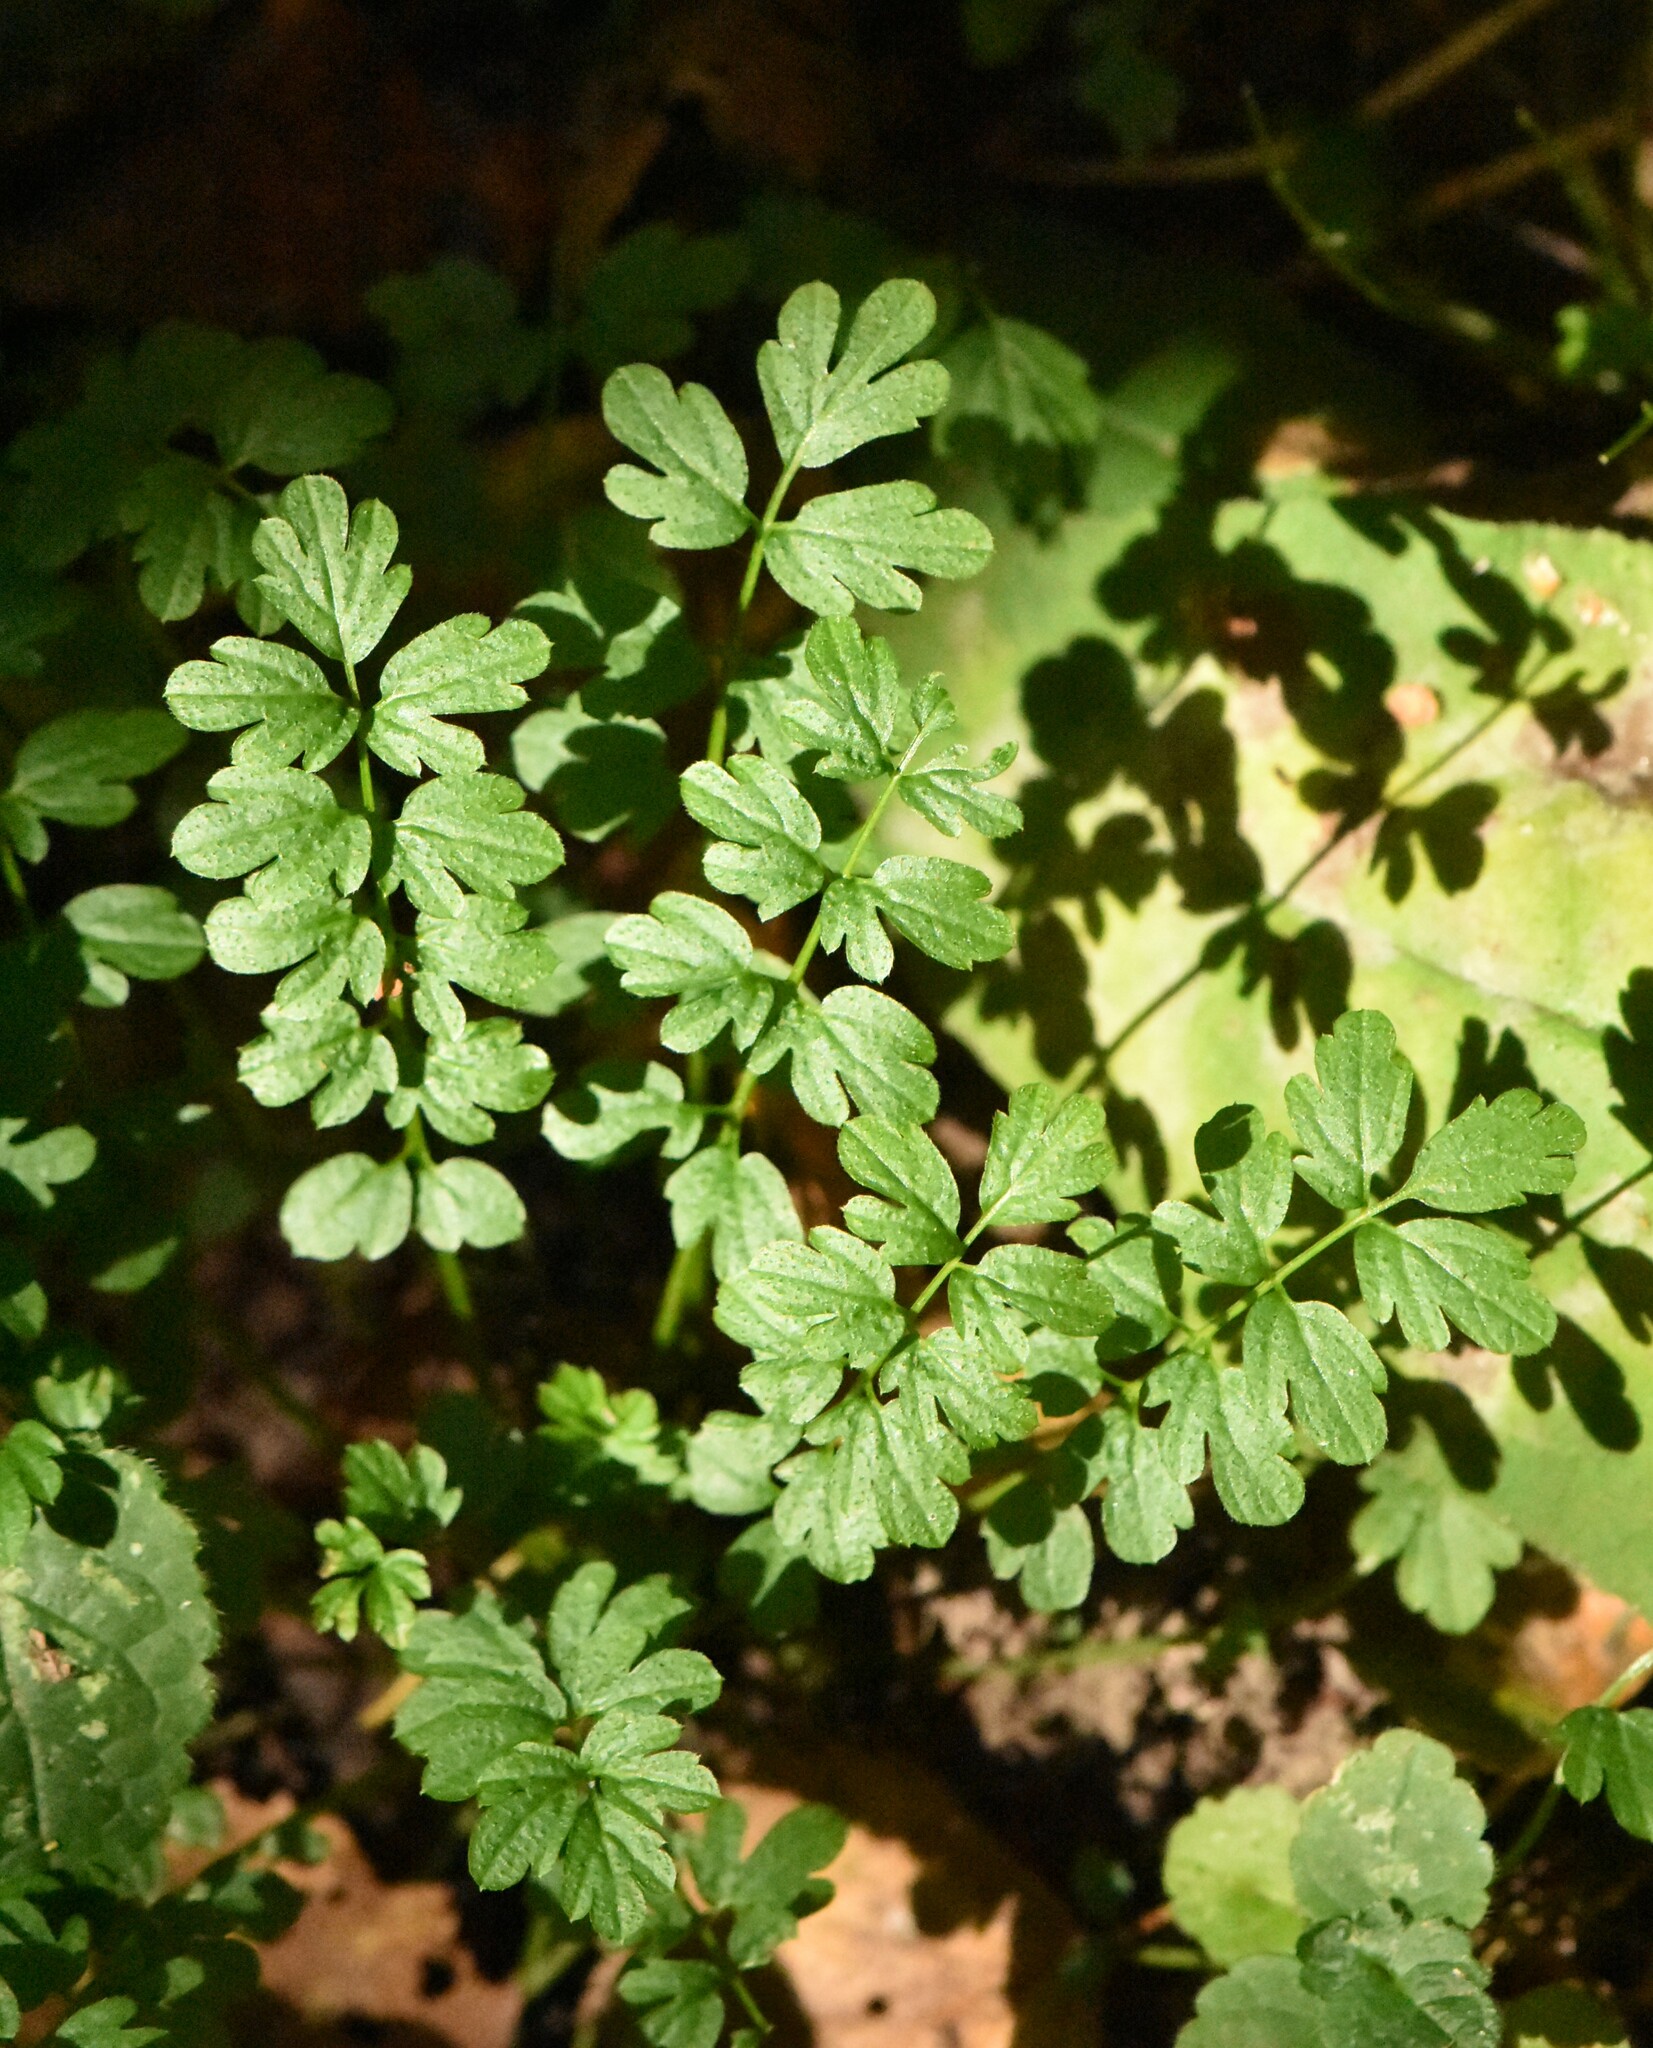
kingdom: Plantae
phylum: Tracheophyta
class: Magnoliopsida
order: Brassicales
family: Brassicaceae
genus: Cardamine
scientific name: Cardamine impatiens
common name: Narrow-leaved bitter-cress
